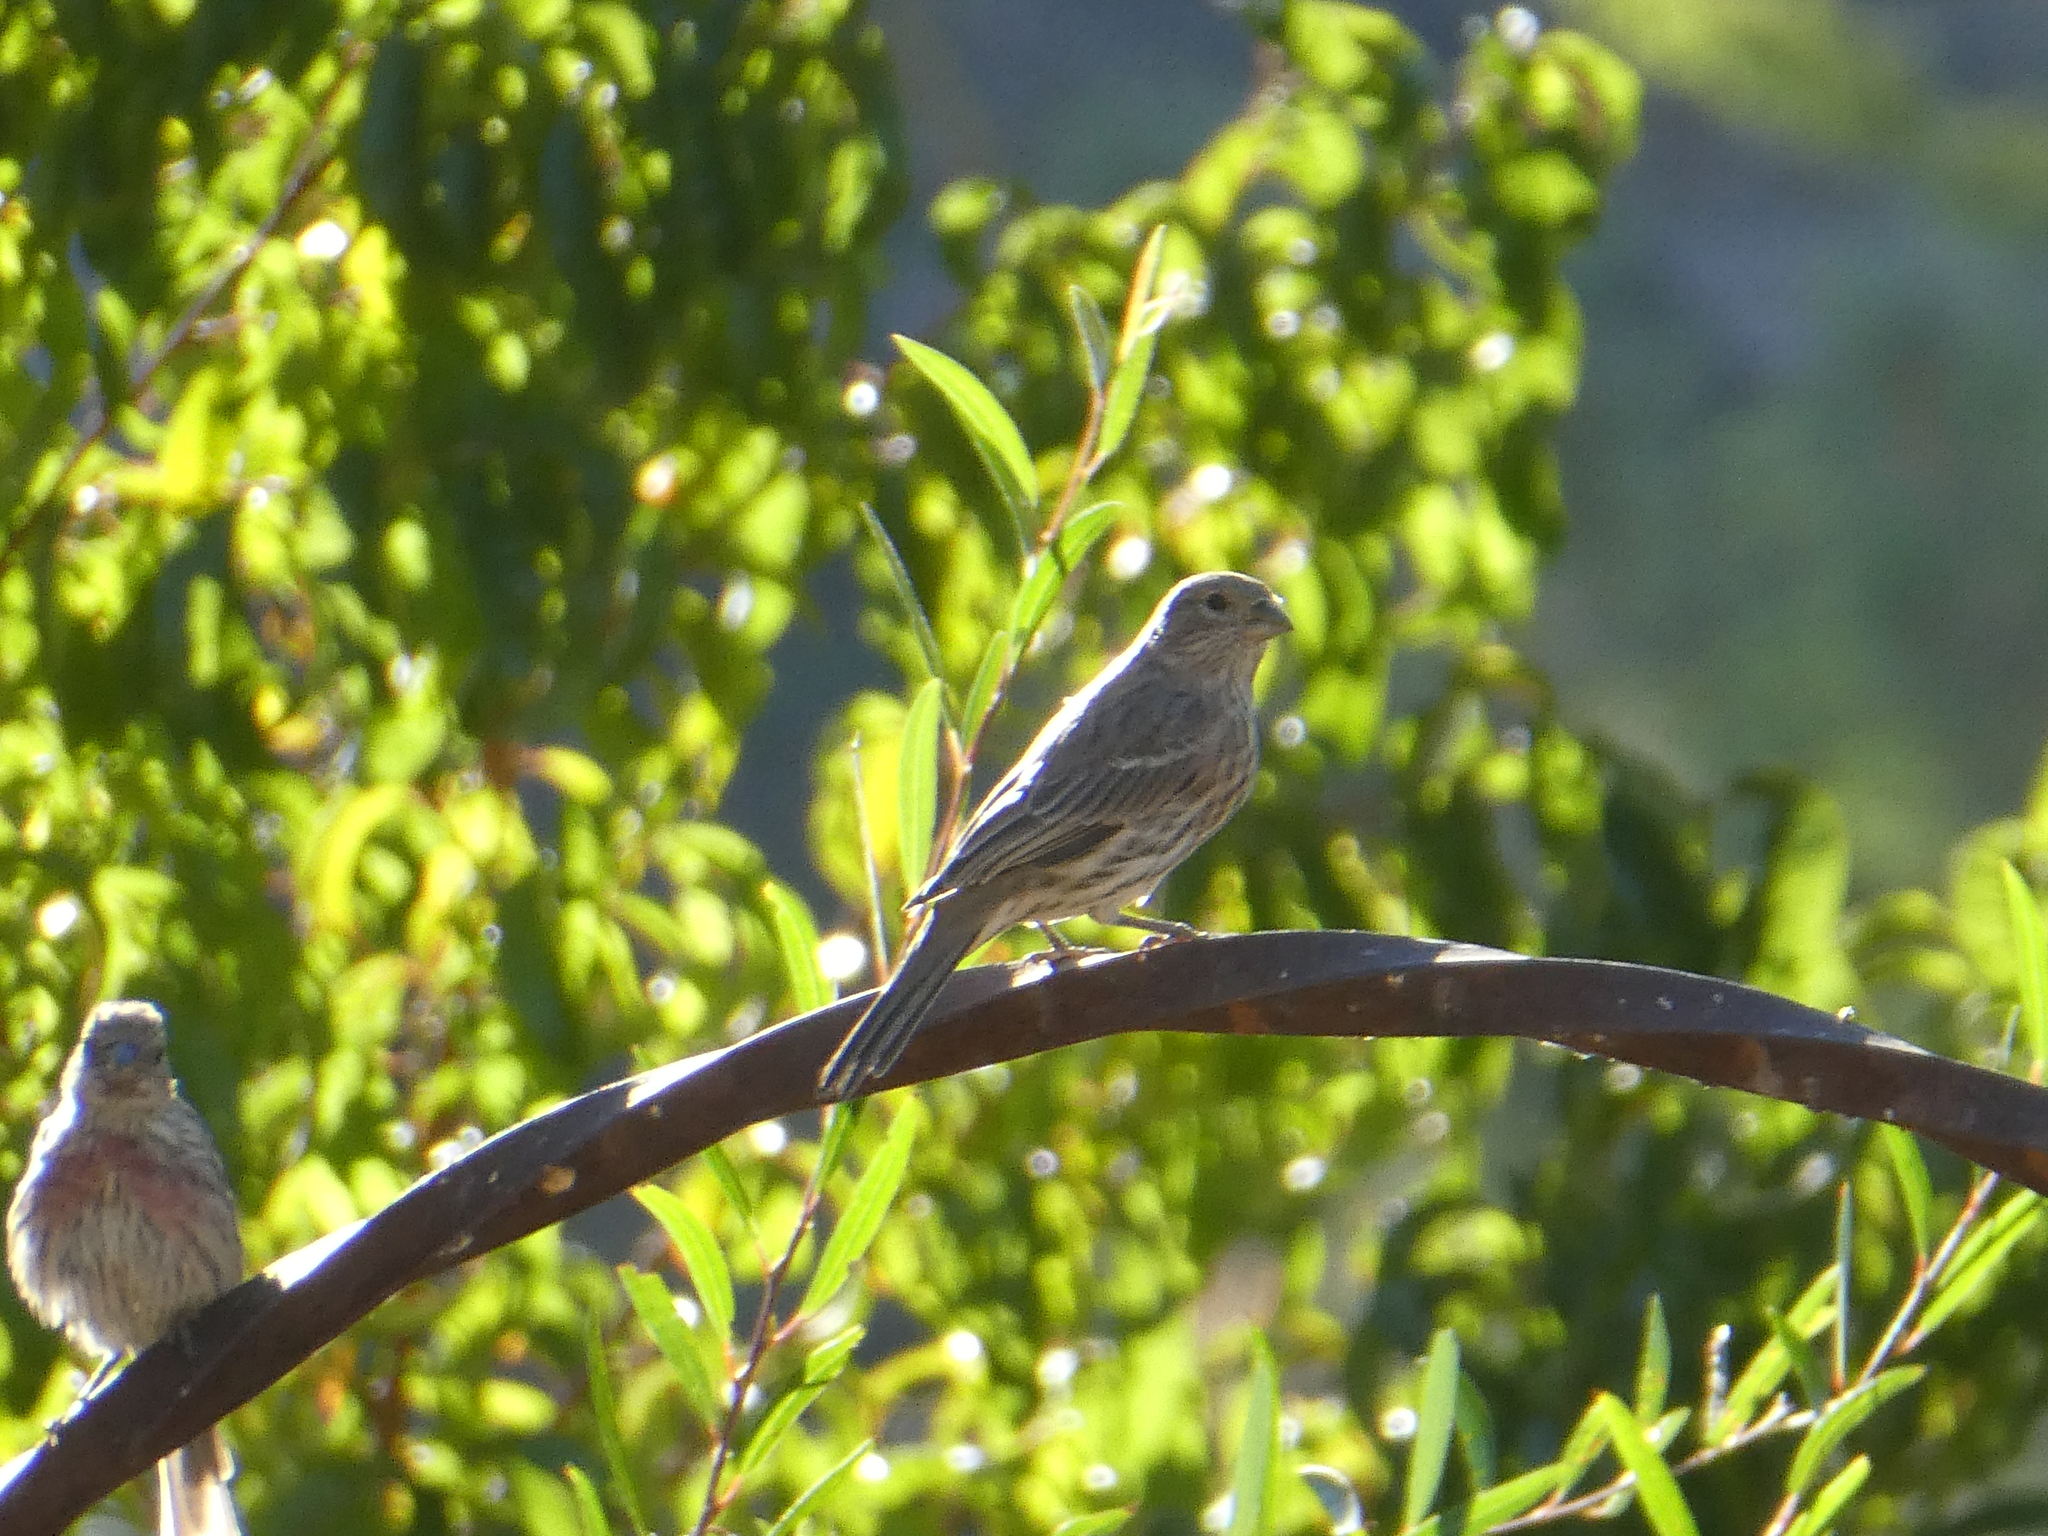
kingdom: Animalia
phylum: Chordata
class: Aves
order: Passeriformes
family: Fringillidae
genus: Haemorhous
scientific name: Haemorhous mexicanus
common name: House finch
